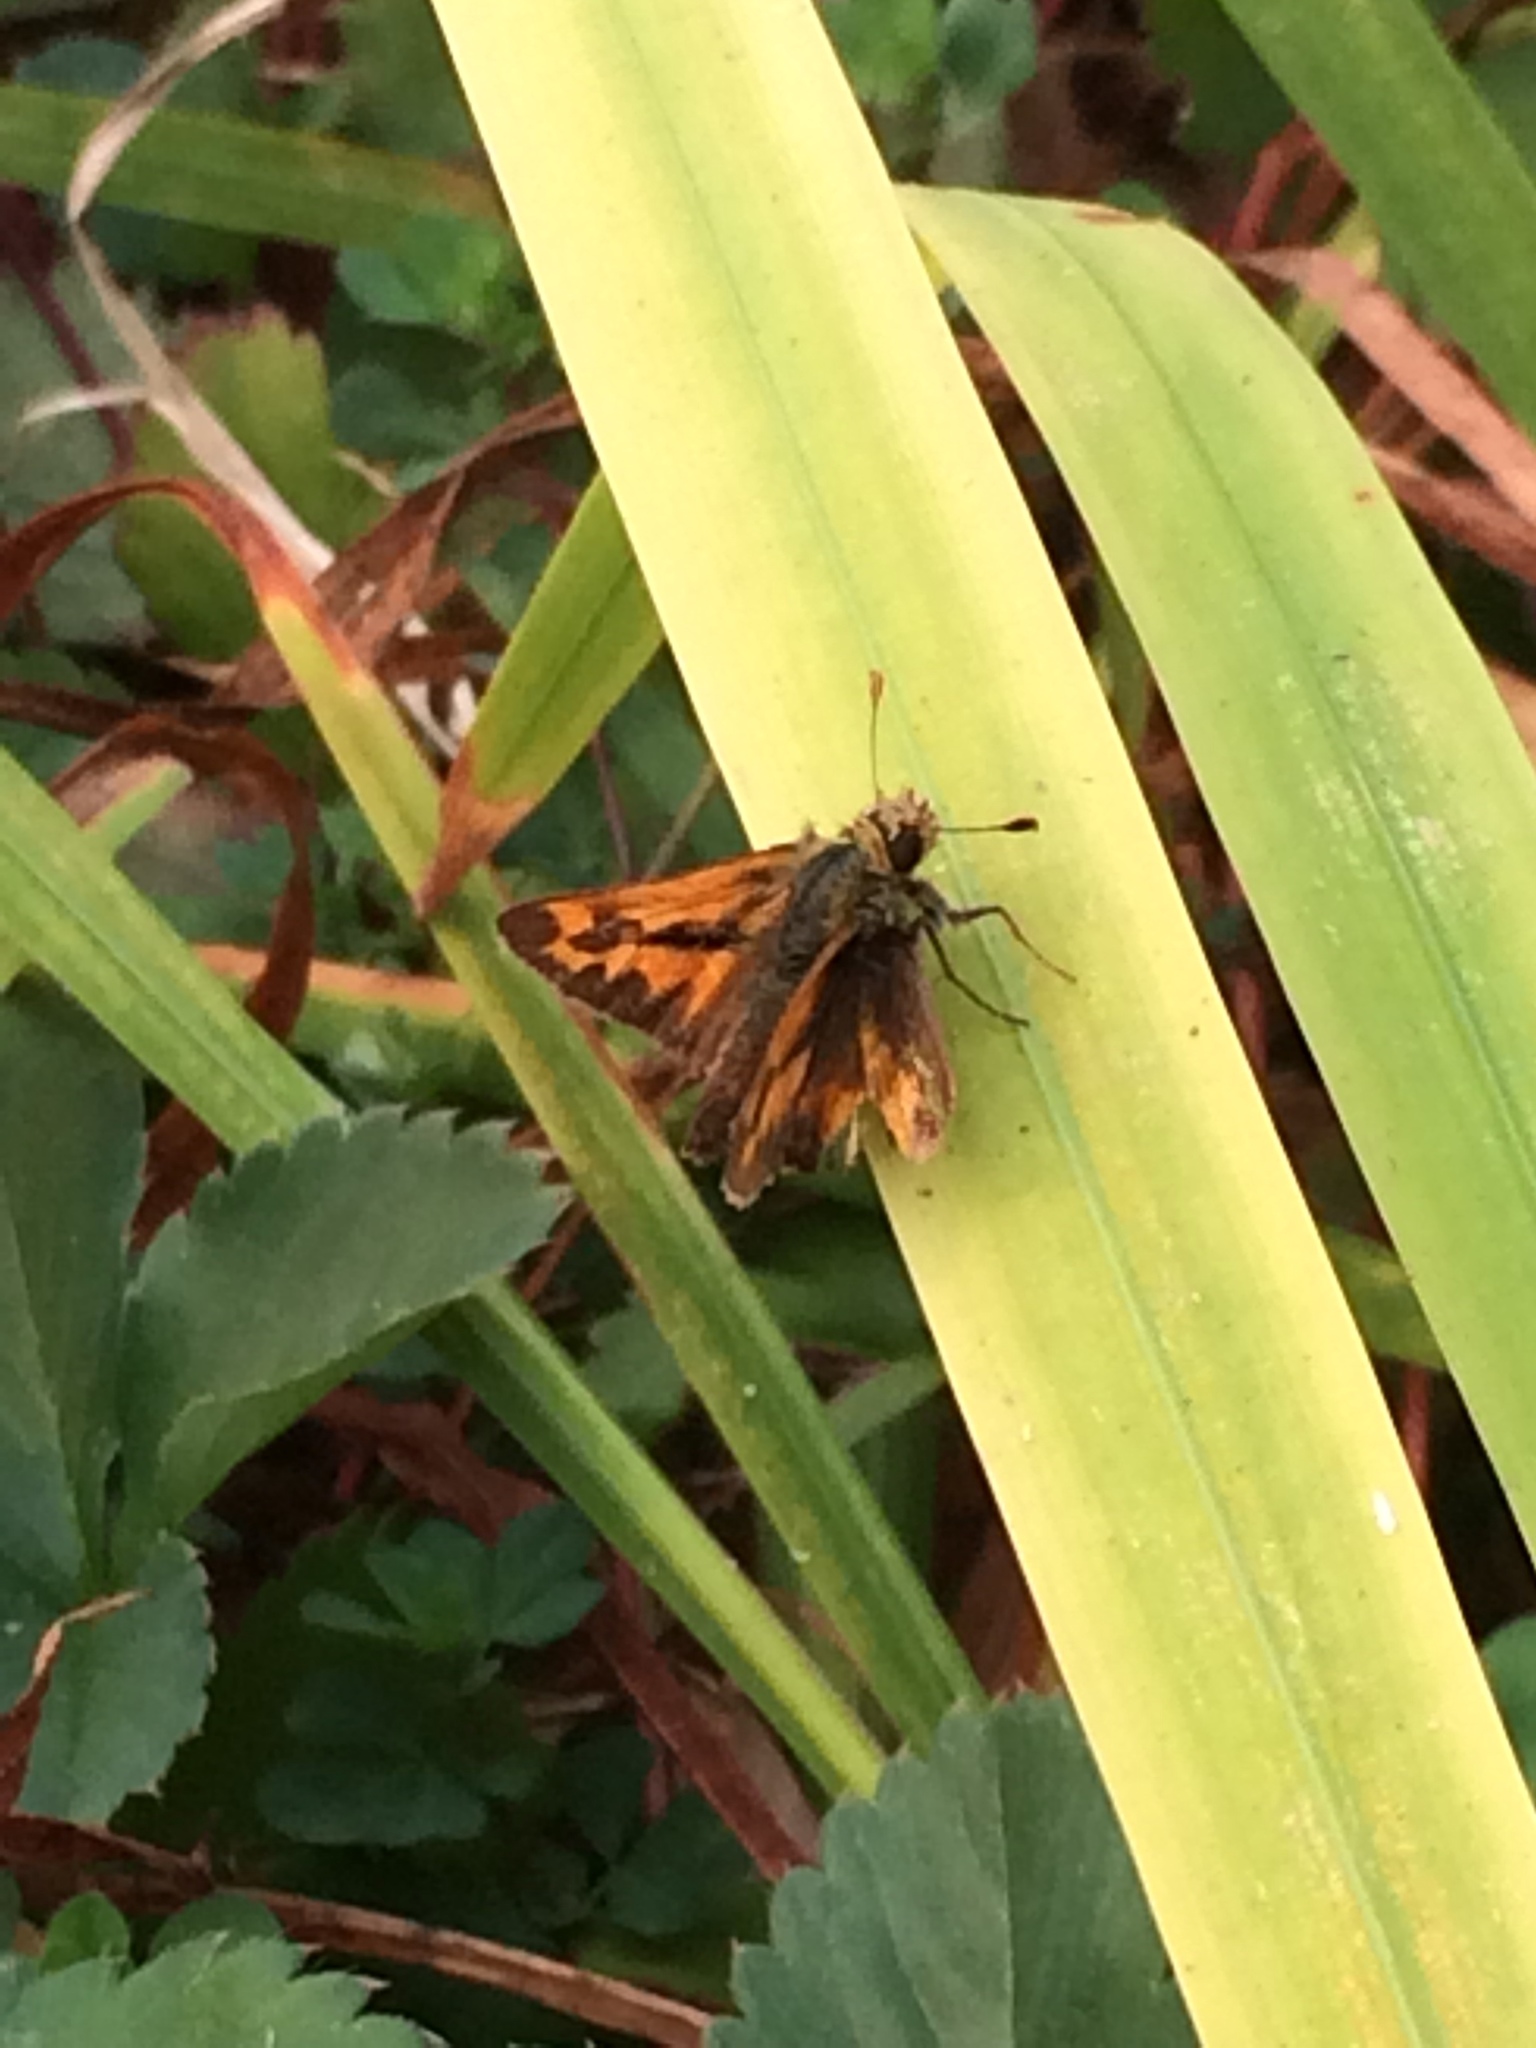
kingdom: Animalia
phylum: Arthropoda
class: Insecta
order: Lepidoptera
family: Hesperiidae
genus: Ochlodes
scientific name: Ochlodes sylvanoides
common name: Woodland skipper
